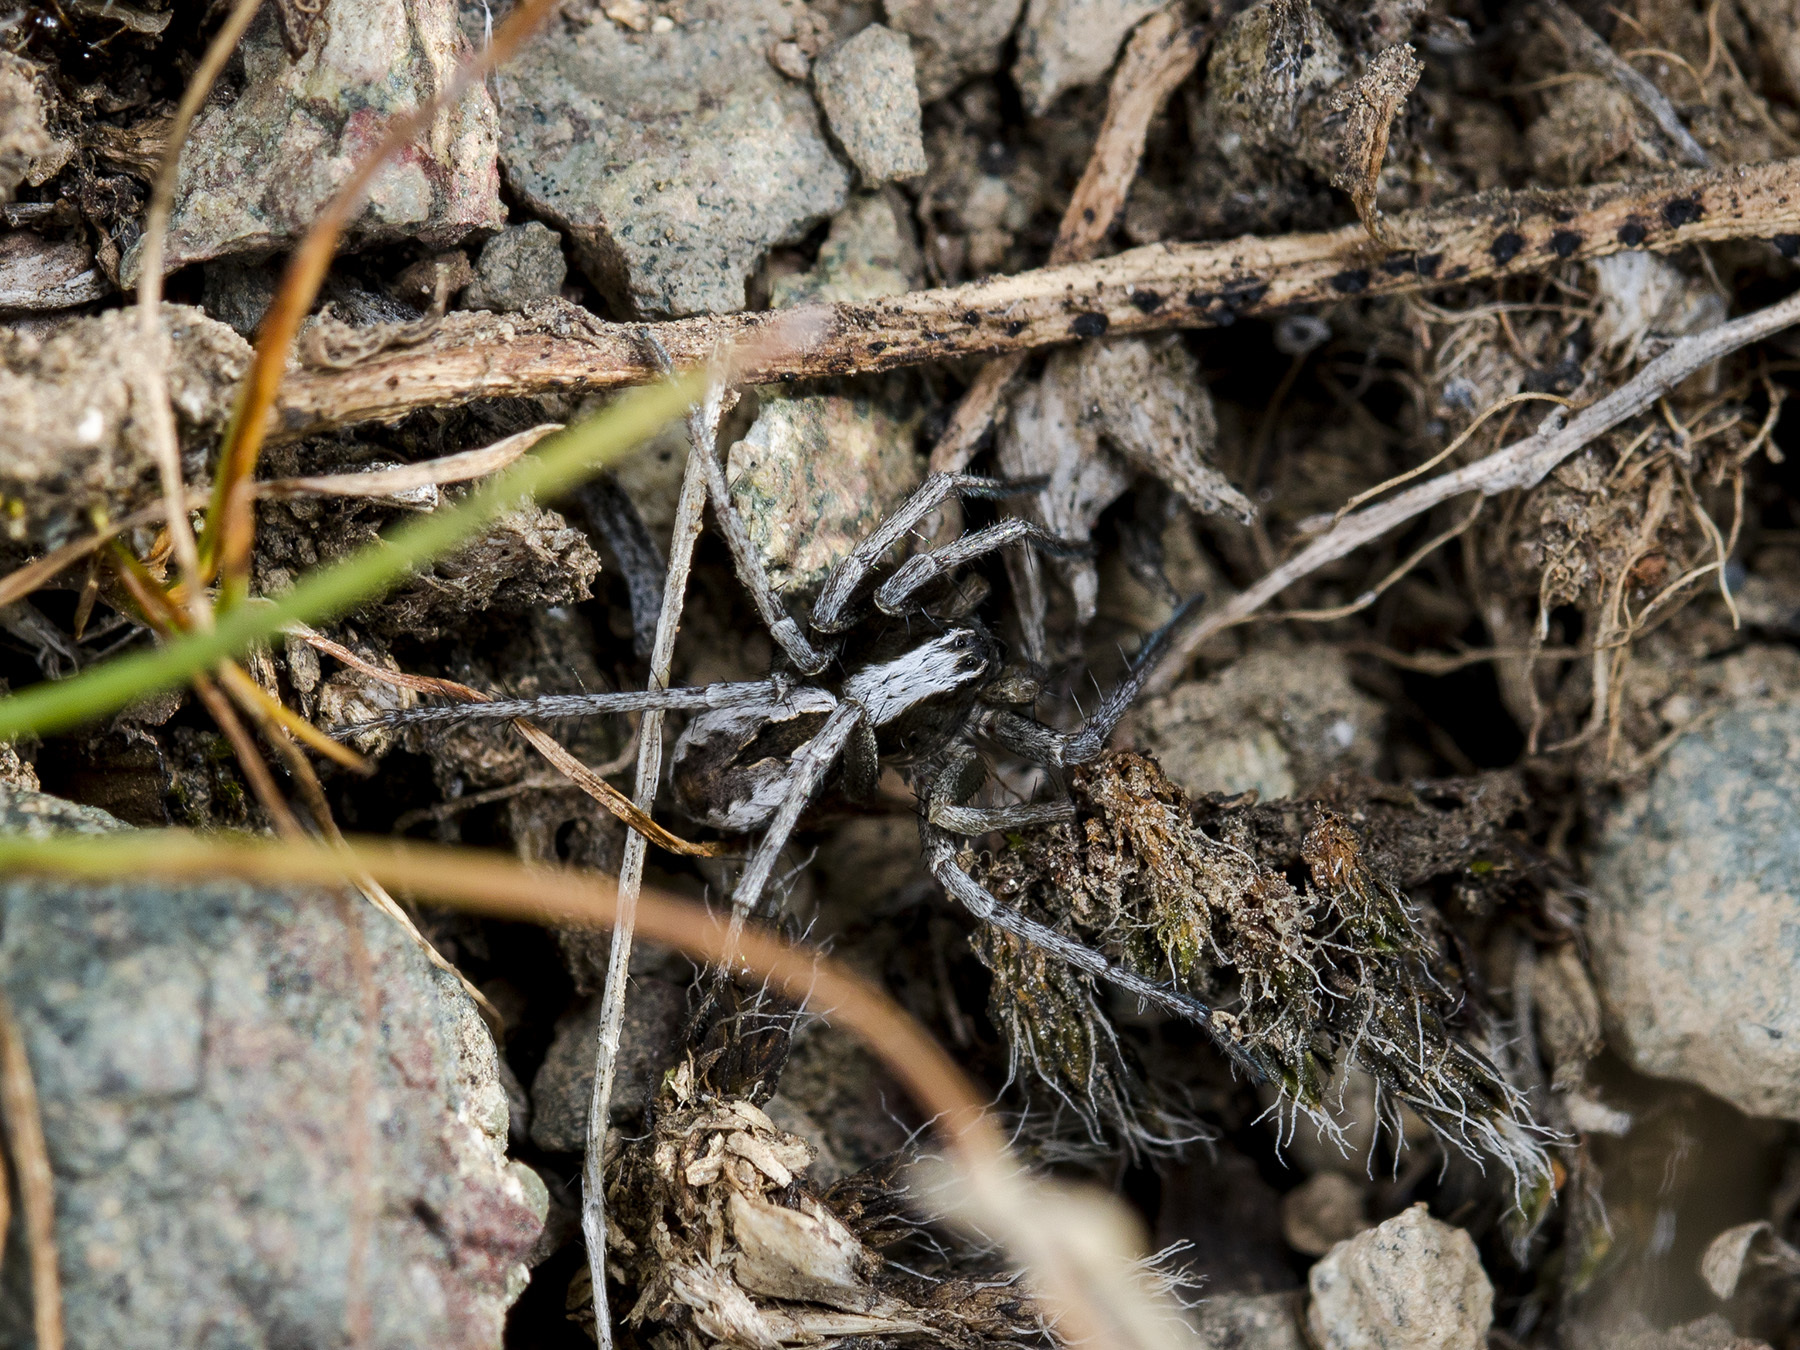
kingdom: Animalia
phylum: Arthropoda
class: Arachnida
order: Araneae
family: Philodromidae
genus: Thanatus
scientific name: Thanatus imbecillus
